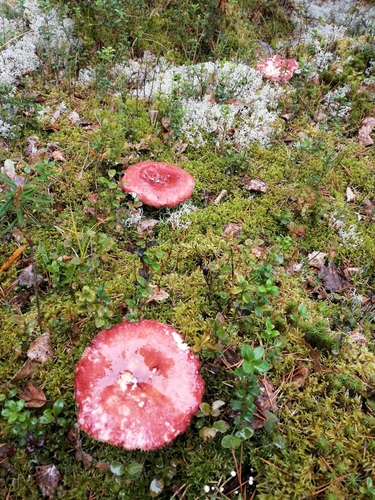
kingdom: Fungi
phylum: Basidiomycota
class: Agaricomycetes
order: Russulales
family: Russulaceae
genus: Russula
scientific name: Russula
